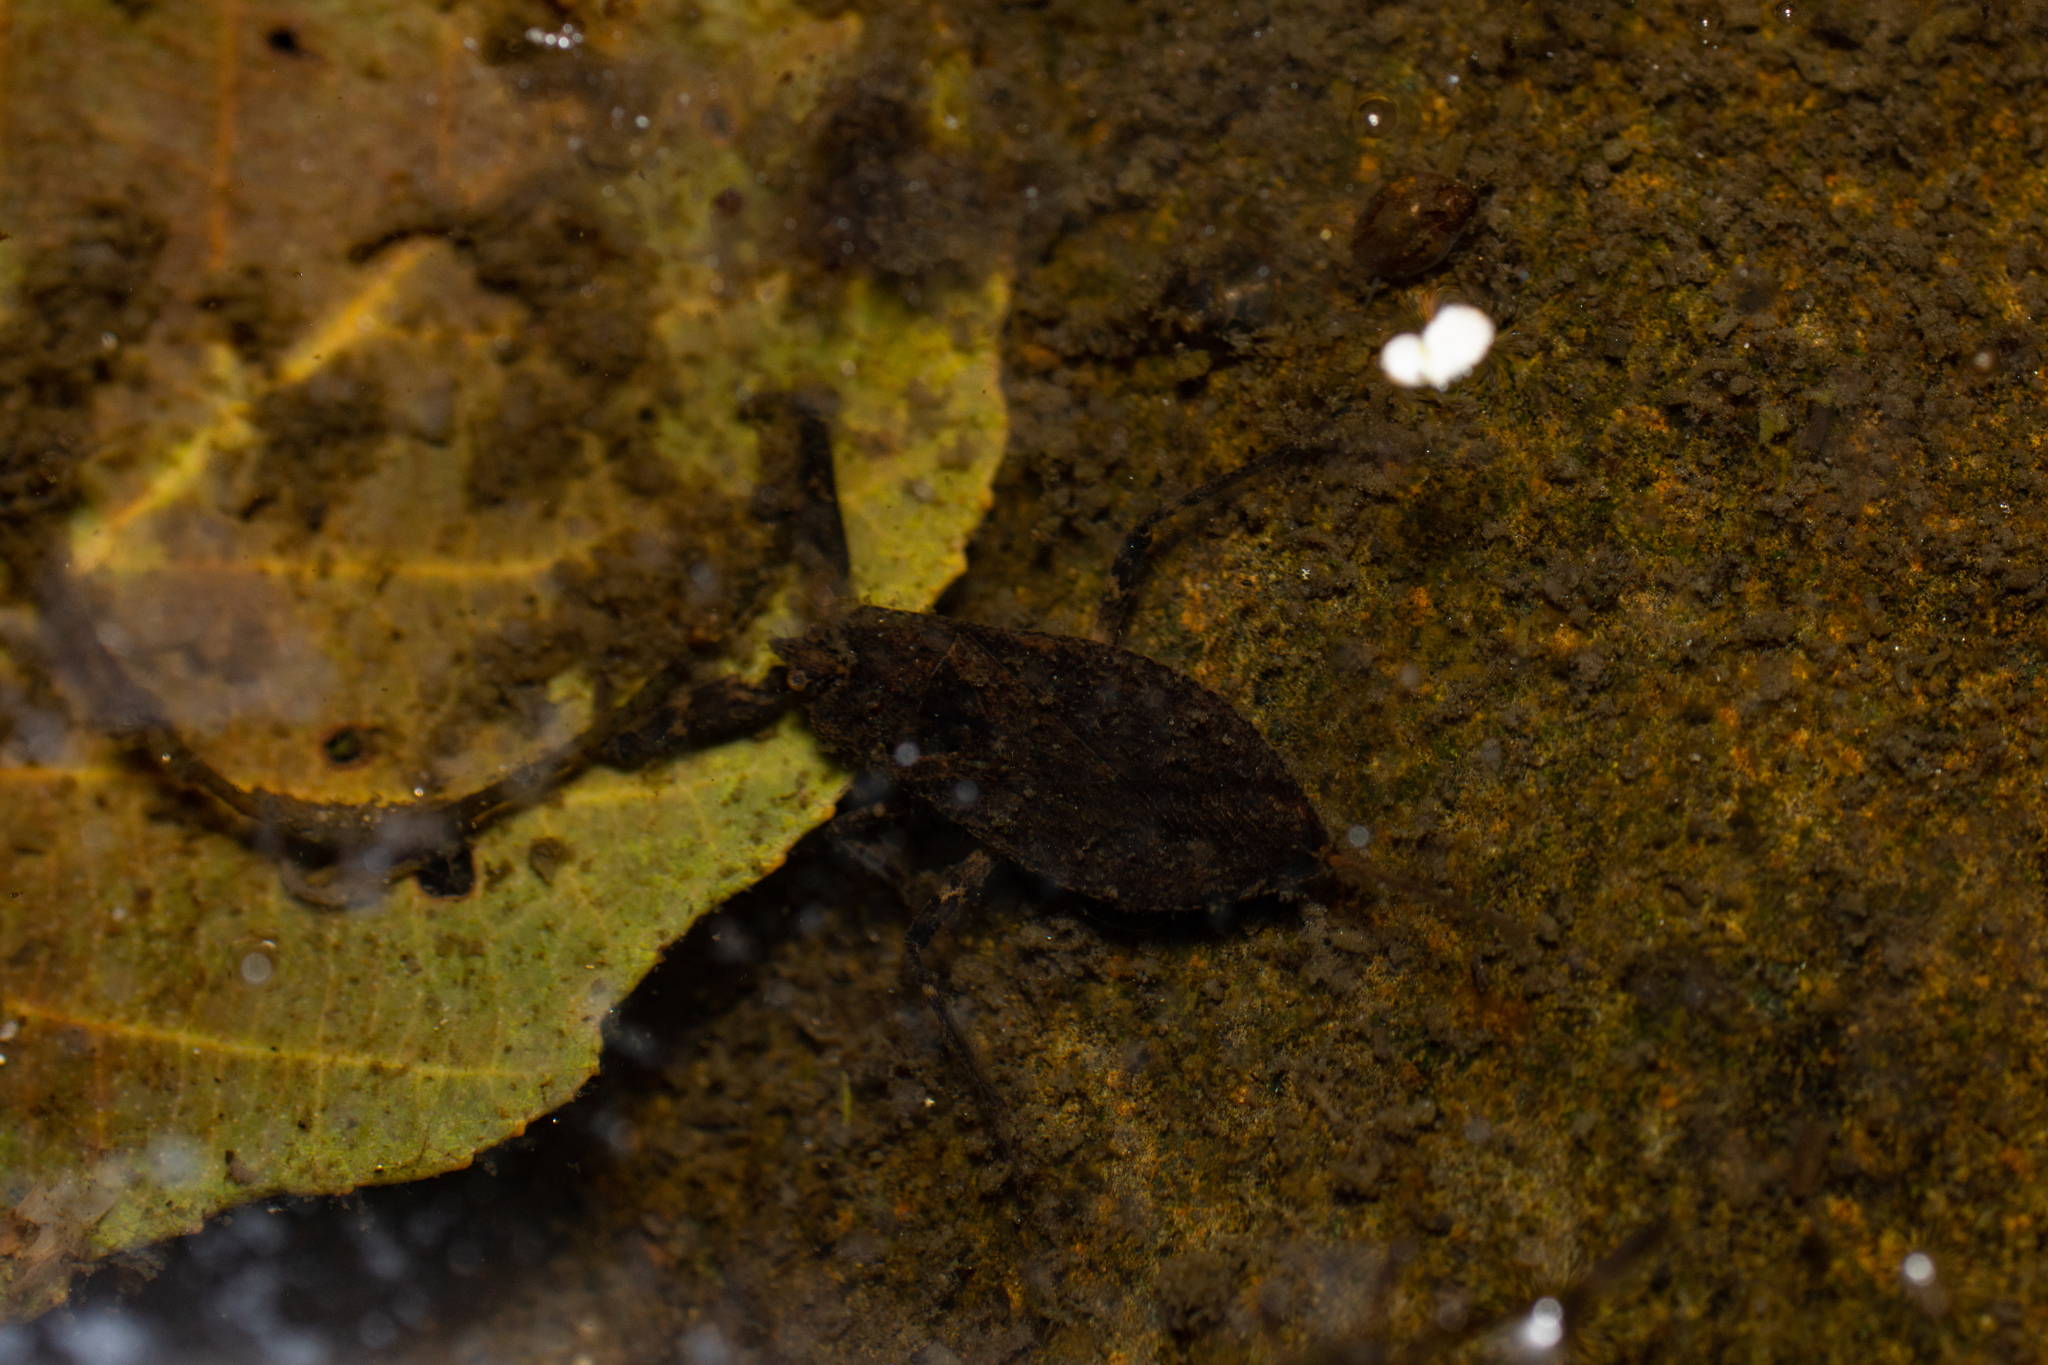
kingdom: Animalia
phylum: Arthropoda
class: Insecta
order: Hemiptera
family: Nepidae
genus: Nepa
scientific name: Nepa cinerea
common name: Water scorpion
